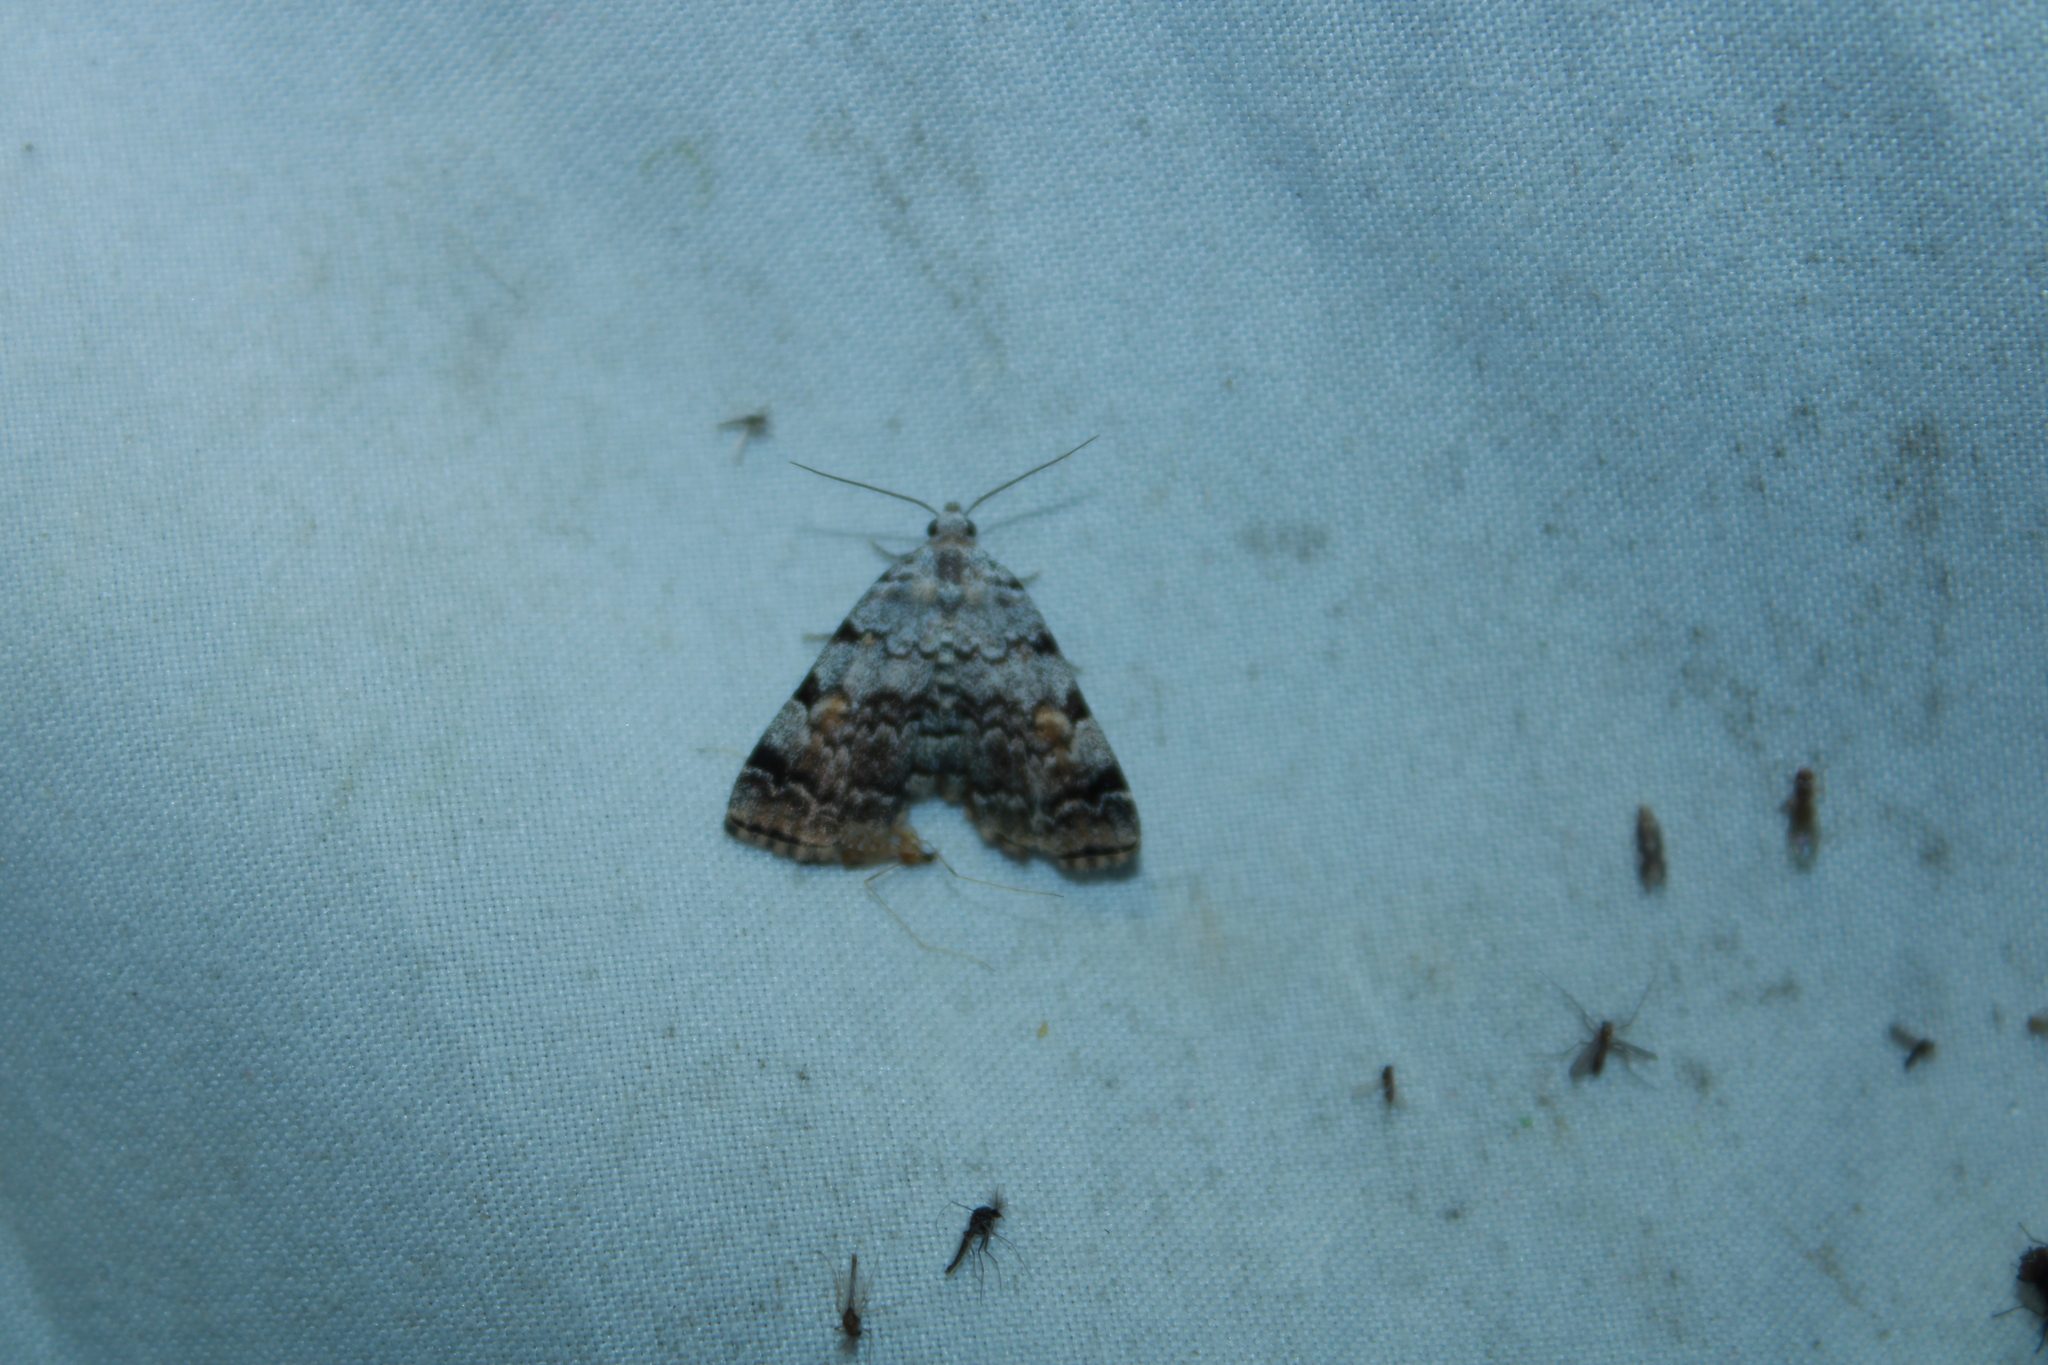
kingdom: Animalia
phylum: Arthropoda
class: Insecta
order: Lepidoptera
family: Erebidae
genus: Idia
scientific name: Idia americalis
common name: American idia moth
